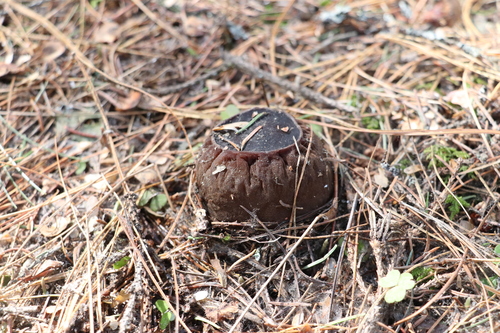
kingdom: Fungi
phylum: Ascomycota
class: Pezizomycetes
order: Pezizales
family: Sarcosomataceae
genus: Sarcosoma
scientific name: Sarcosoma globosum
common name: Charred-pancake cup
